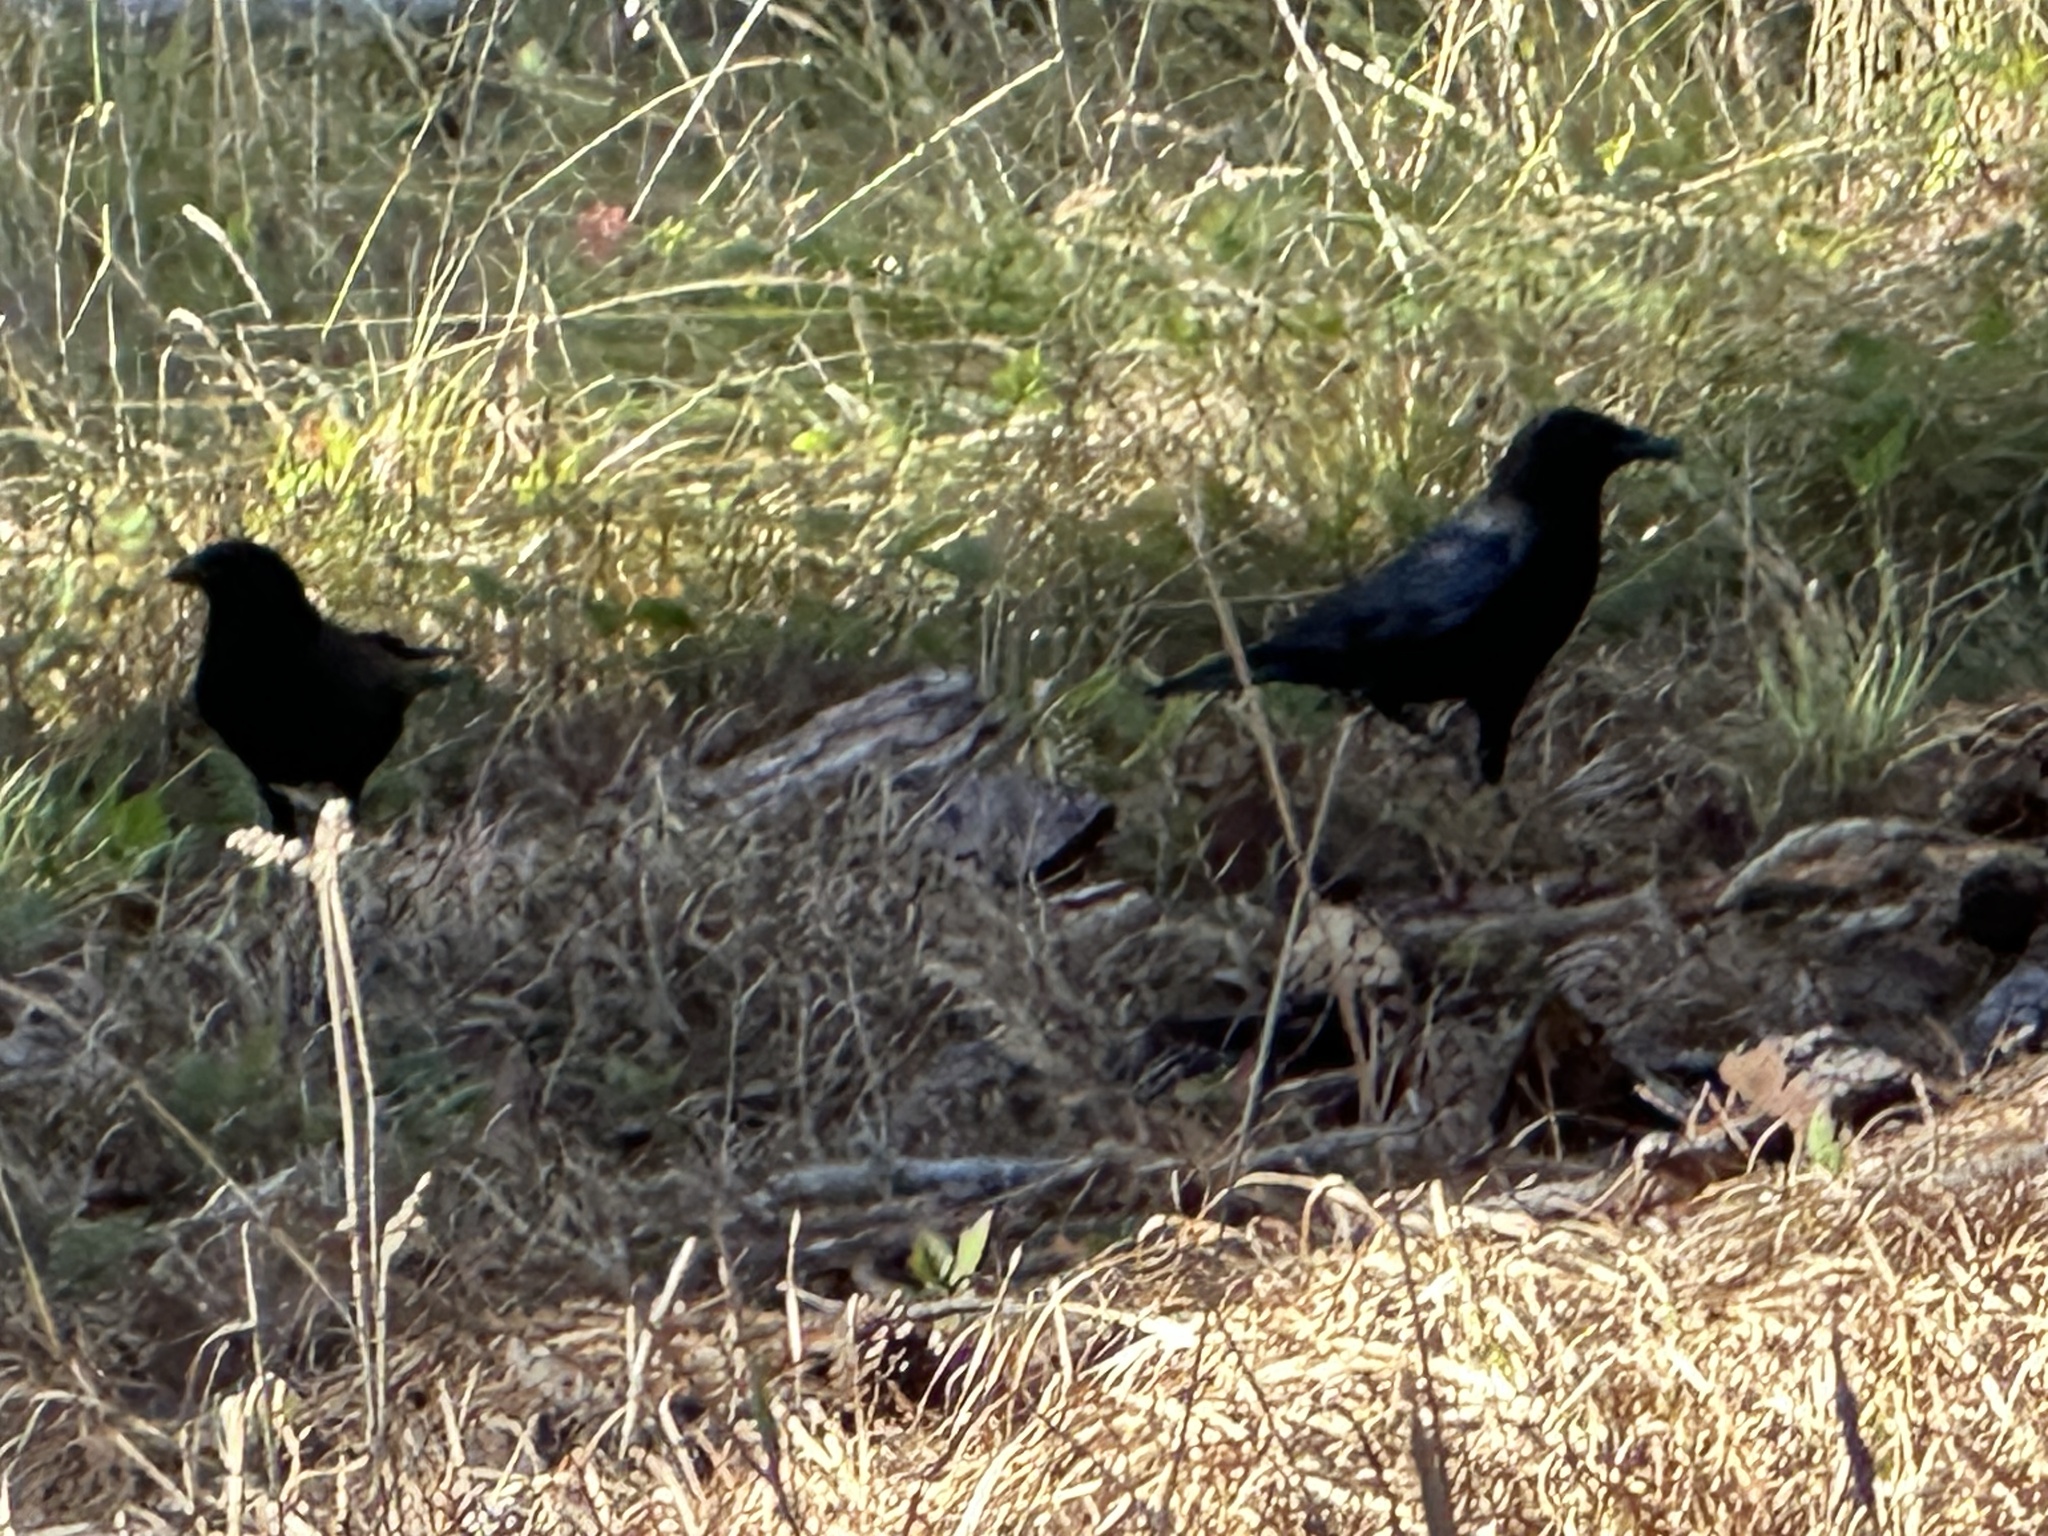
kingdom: Animalia
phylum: Chordata
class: Aves
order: Passeriformes
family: Corvidae
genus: Corvus
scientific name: Corvus brachyrhynchos
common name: American crow
